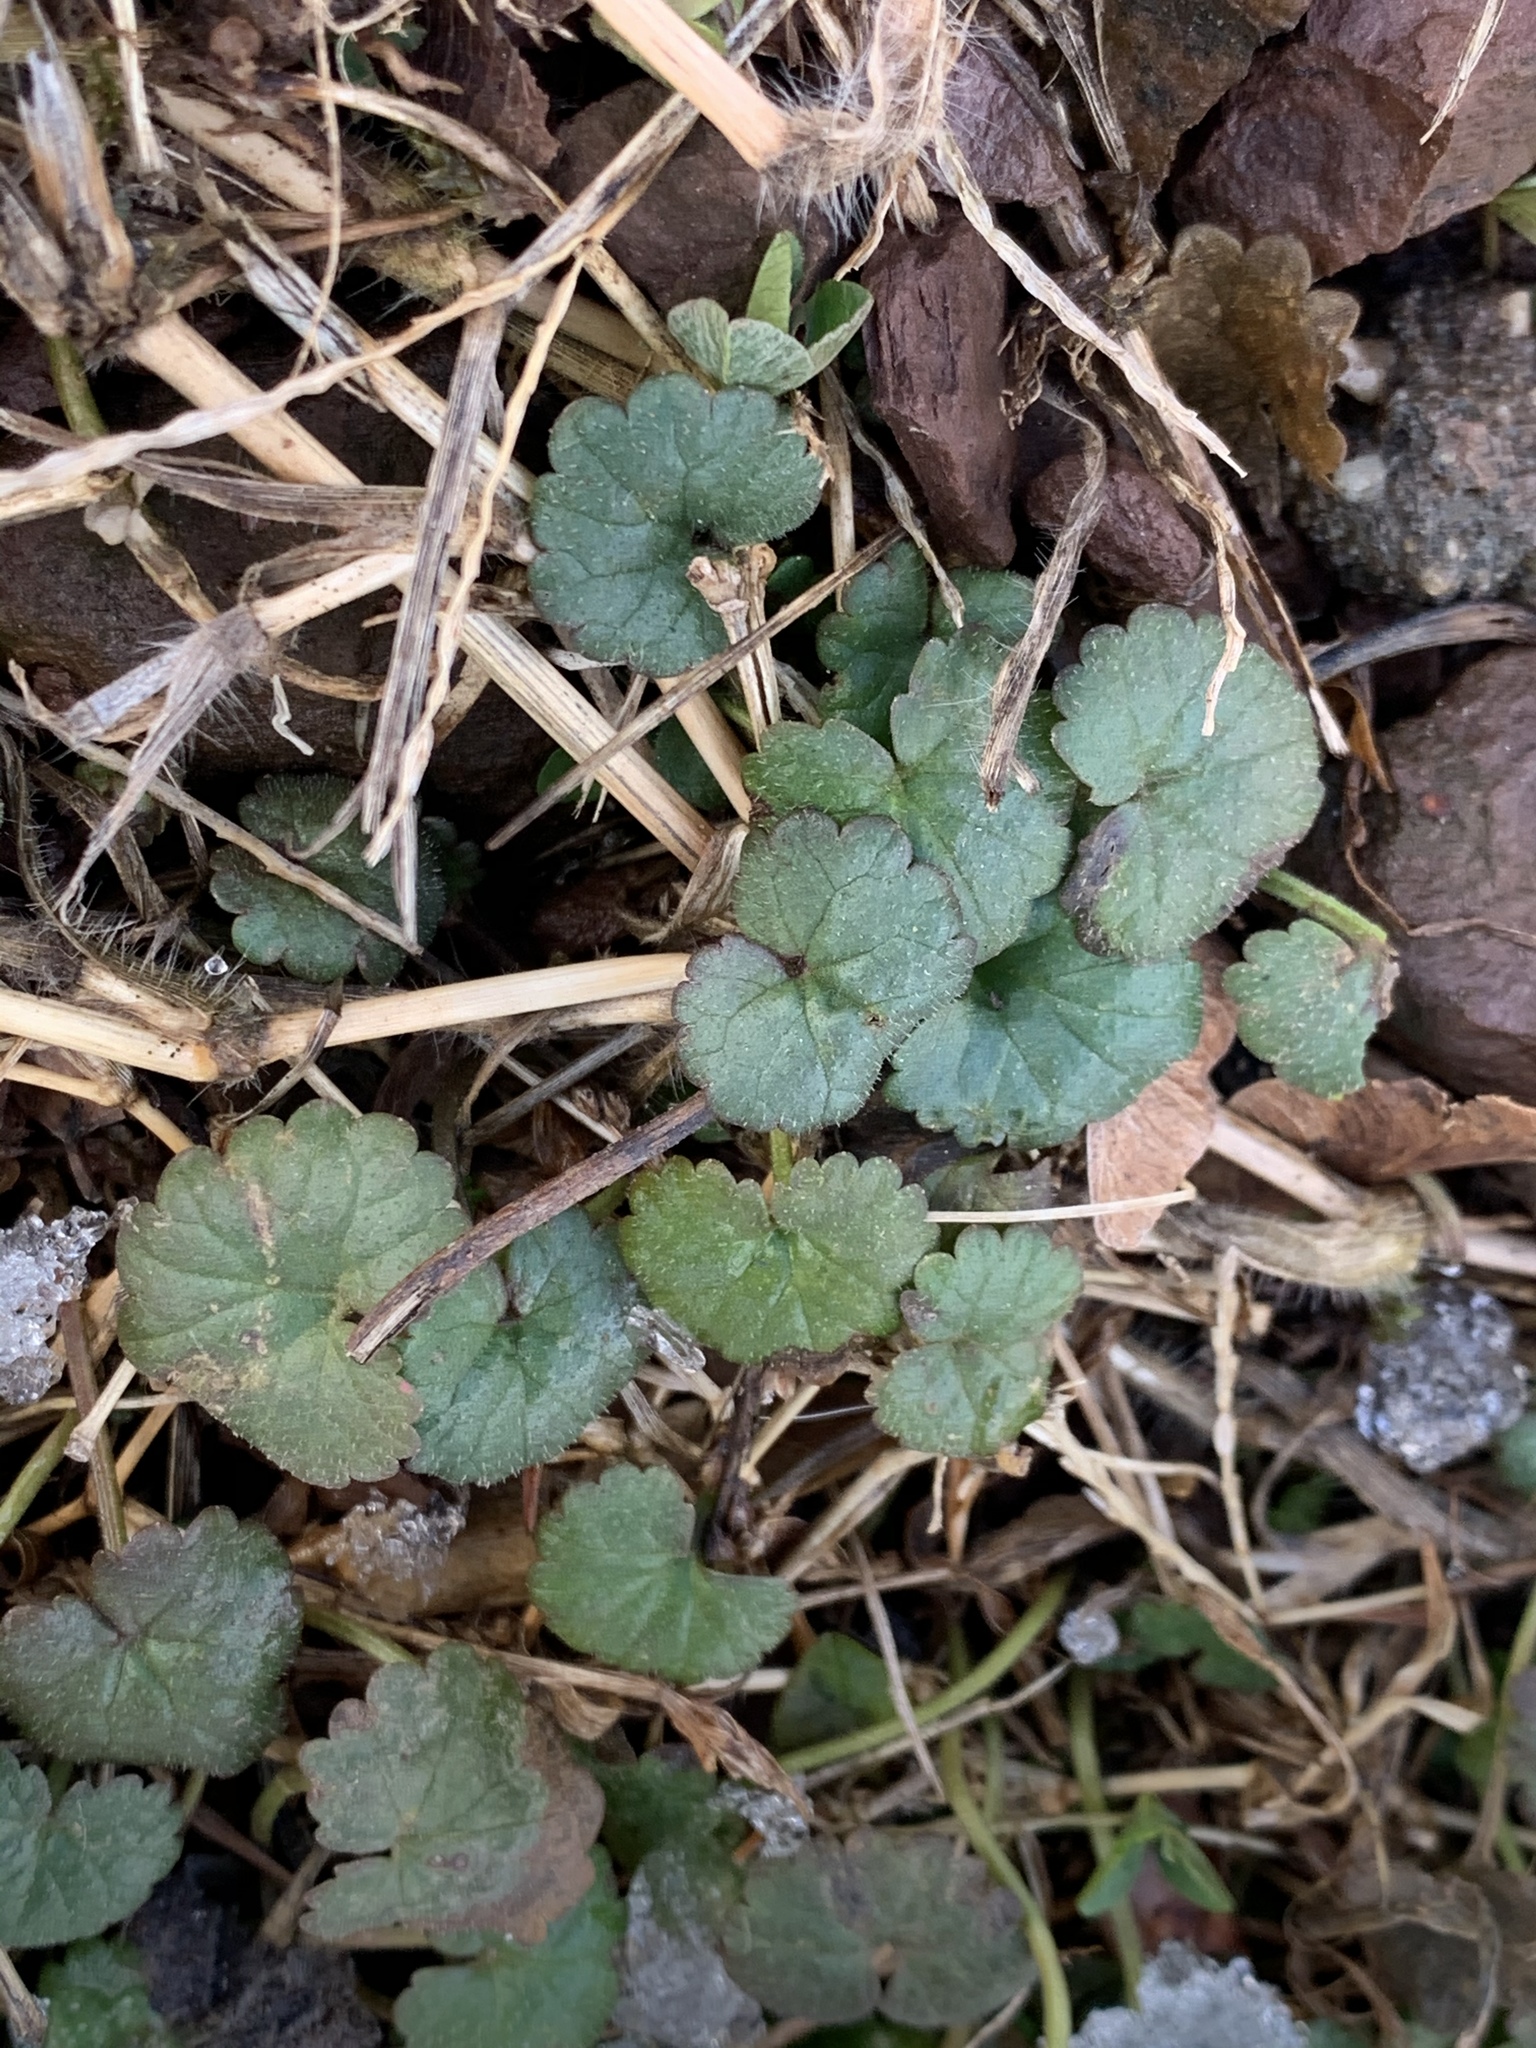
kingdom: Plantae
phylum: Tracheophyta
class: Magnoliopsida
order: Lamiales
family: Lamiaceae
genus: Glechoma
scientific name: Glechoma hederacea
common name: Ground ivy
